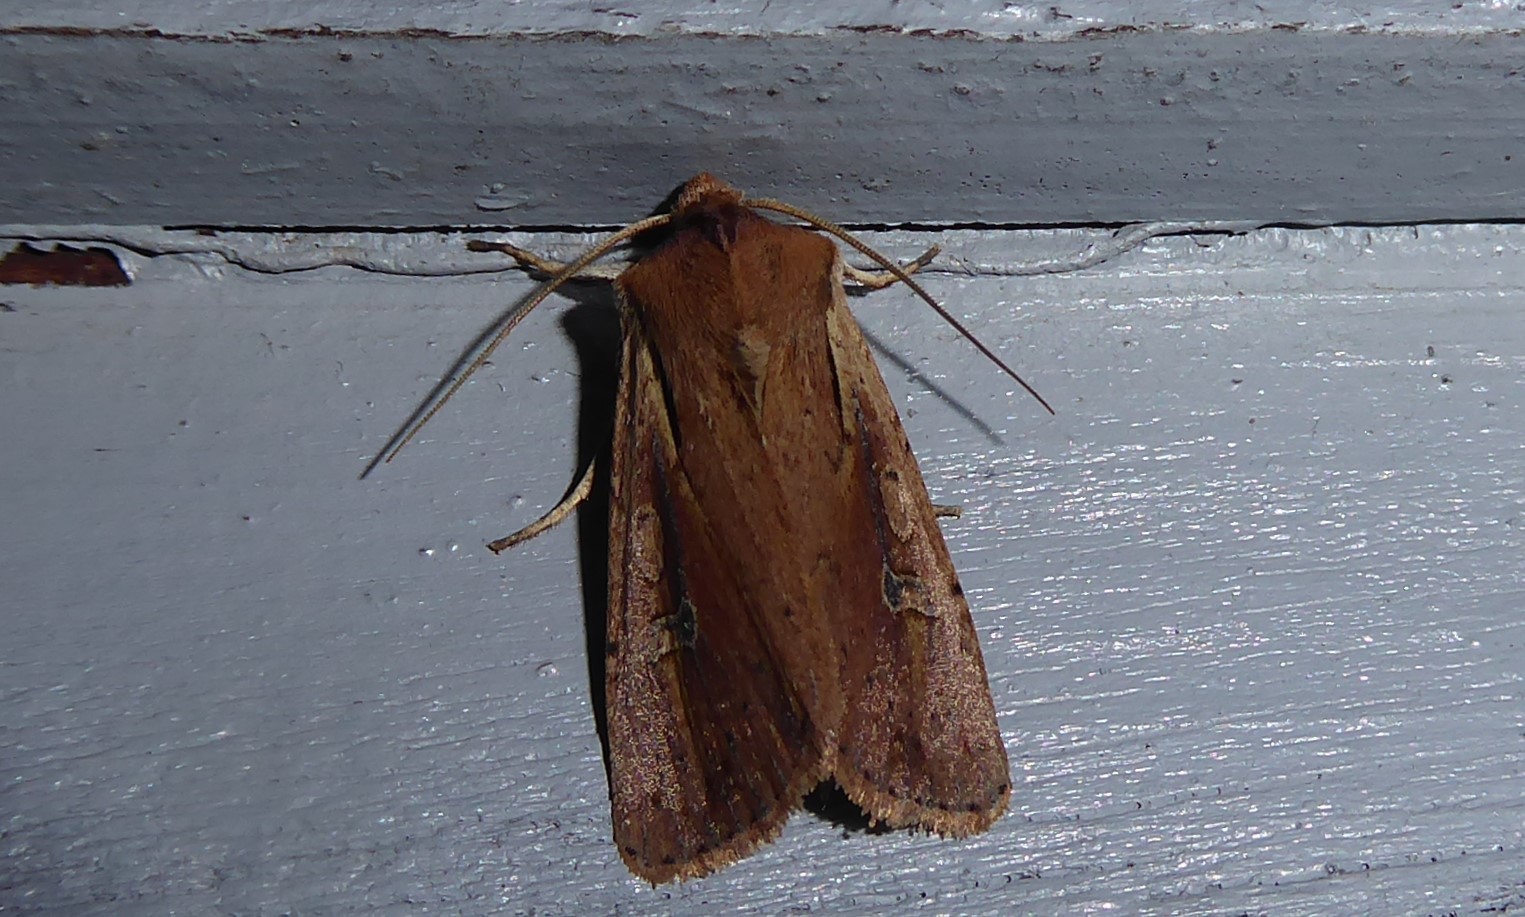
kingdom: Animalia
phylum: Arthropoda
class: Insecta
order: Lepidoptera
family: Noctuidae
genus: Ichneutica
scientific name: Ichneutica atristriga
